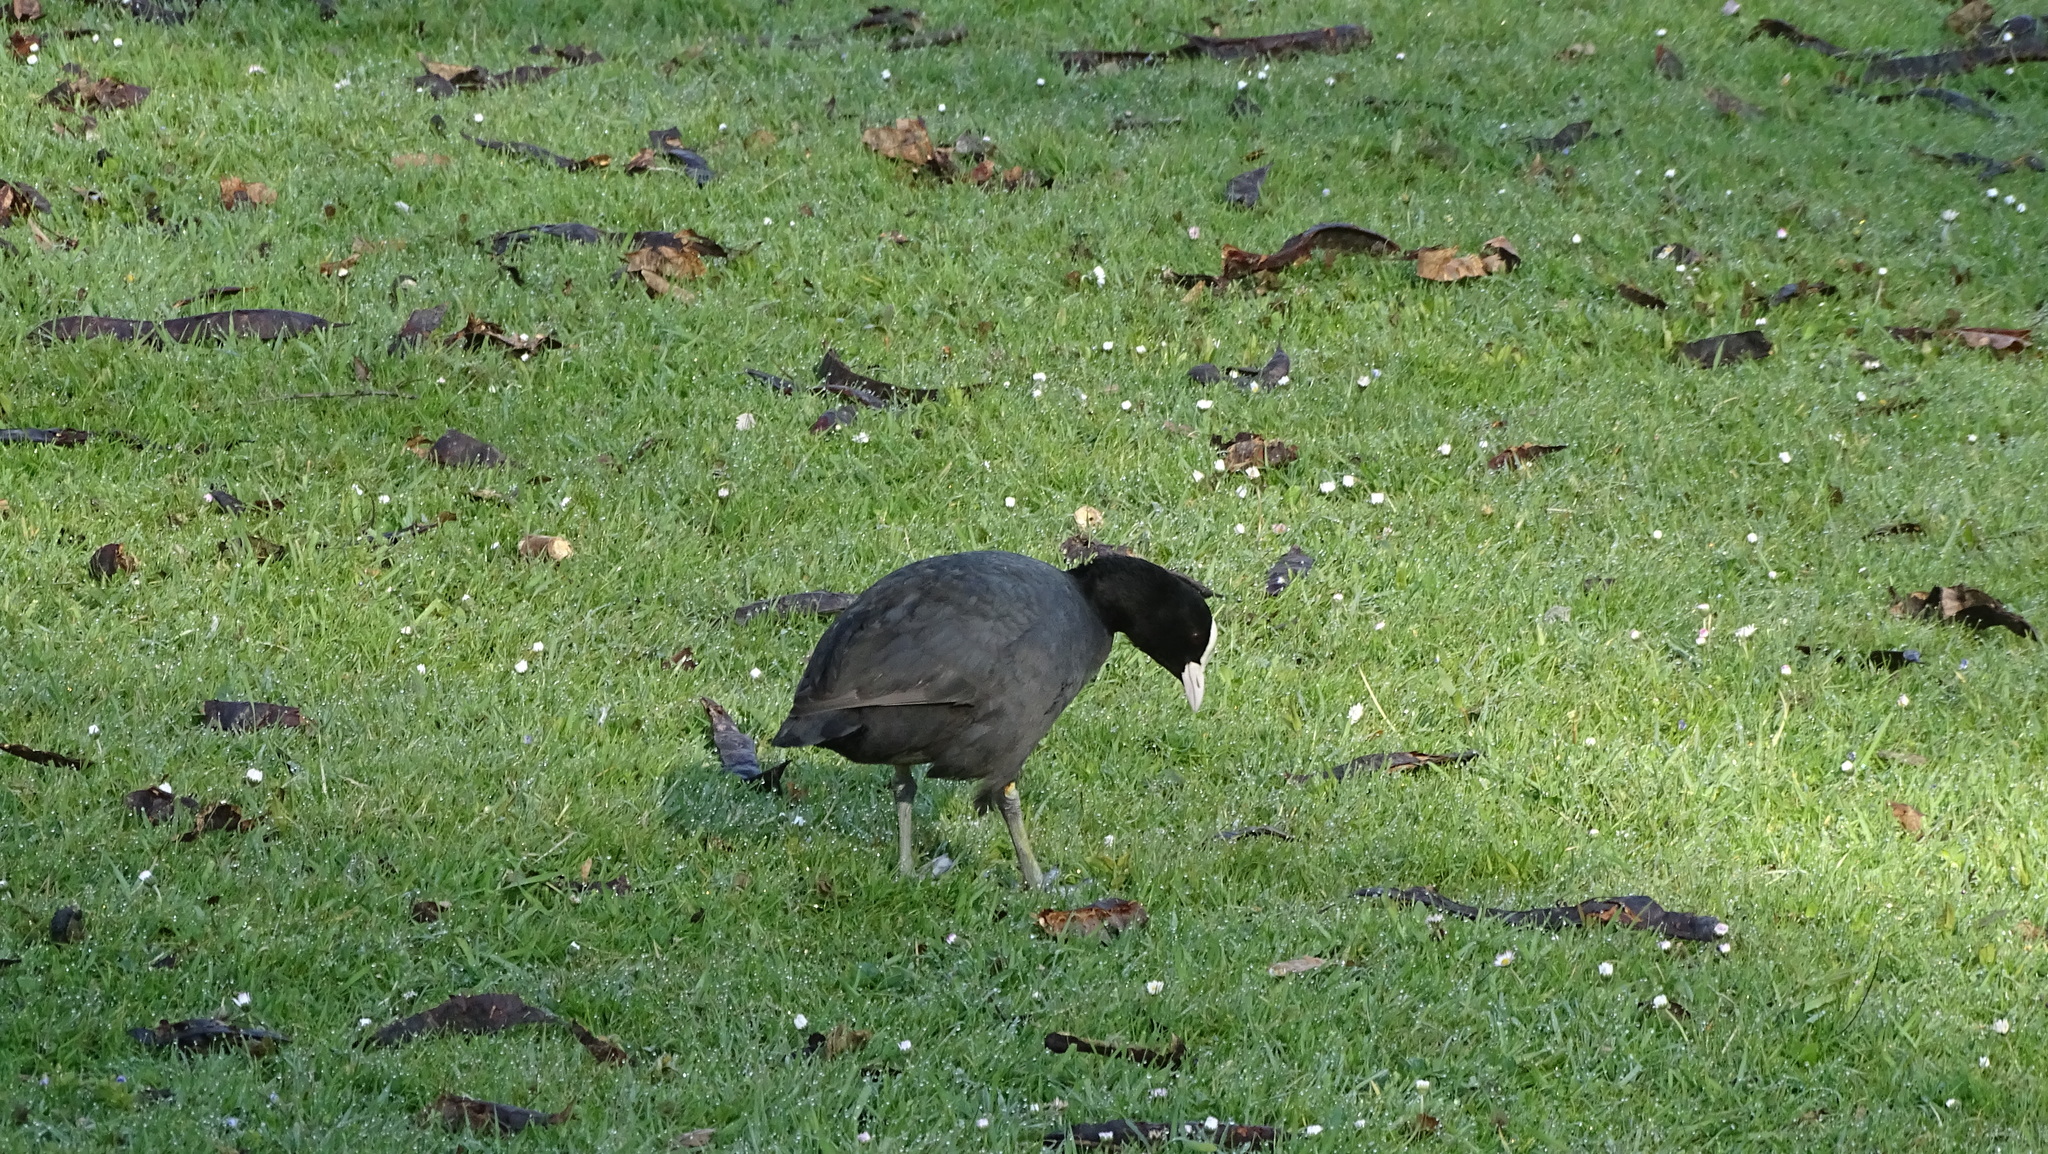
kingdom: Animalia
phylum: Chordata
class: Aves
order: Gruiformes
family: Rallidae
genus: Fulica
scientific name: Fulica atra
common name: Eurasian coot
